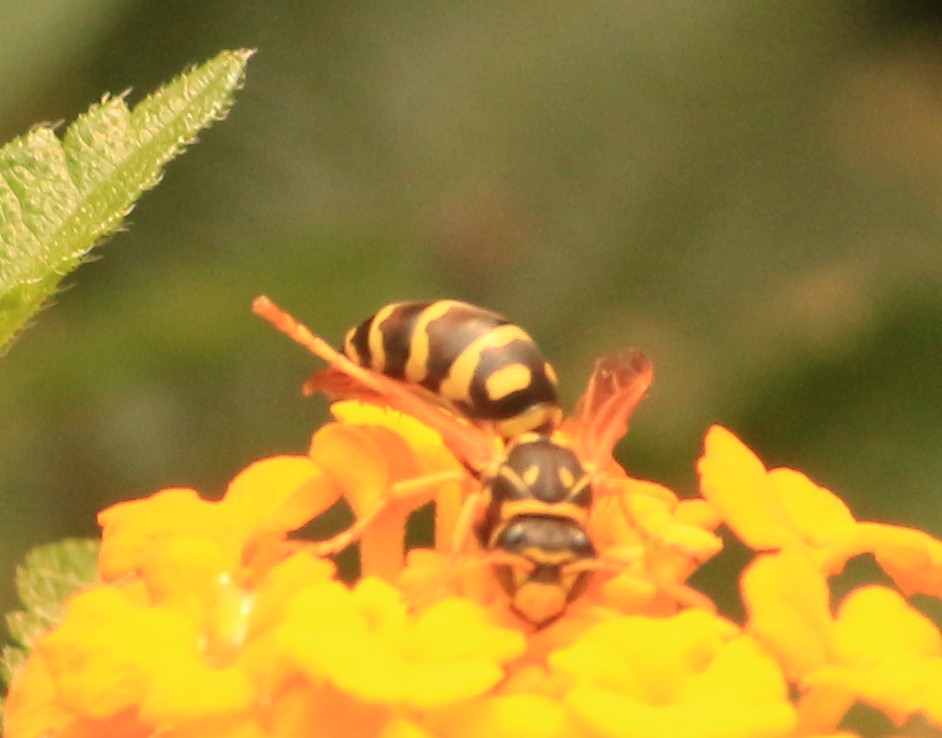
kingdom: Animalia
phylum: Arthropoda
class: Insecta
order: Hymenoptera
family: Eumenidae
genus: Polistes
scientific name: Polistes dominula
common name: Paper wasp
